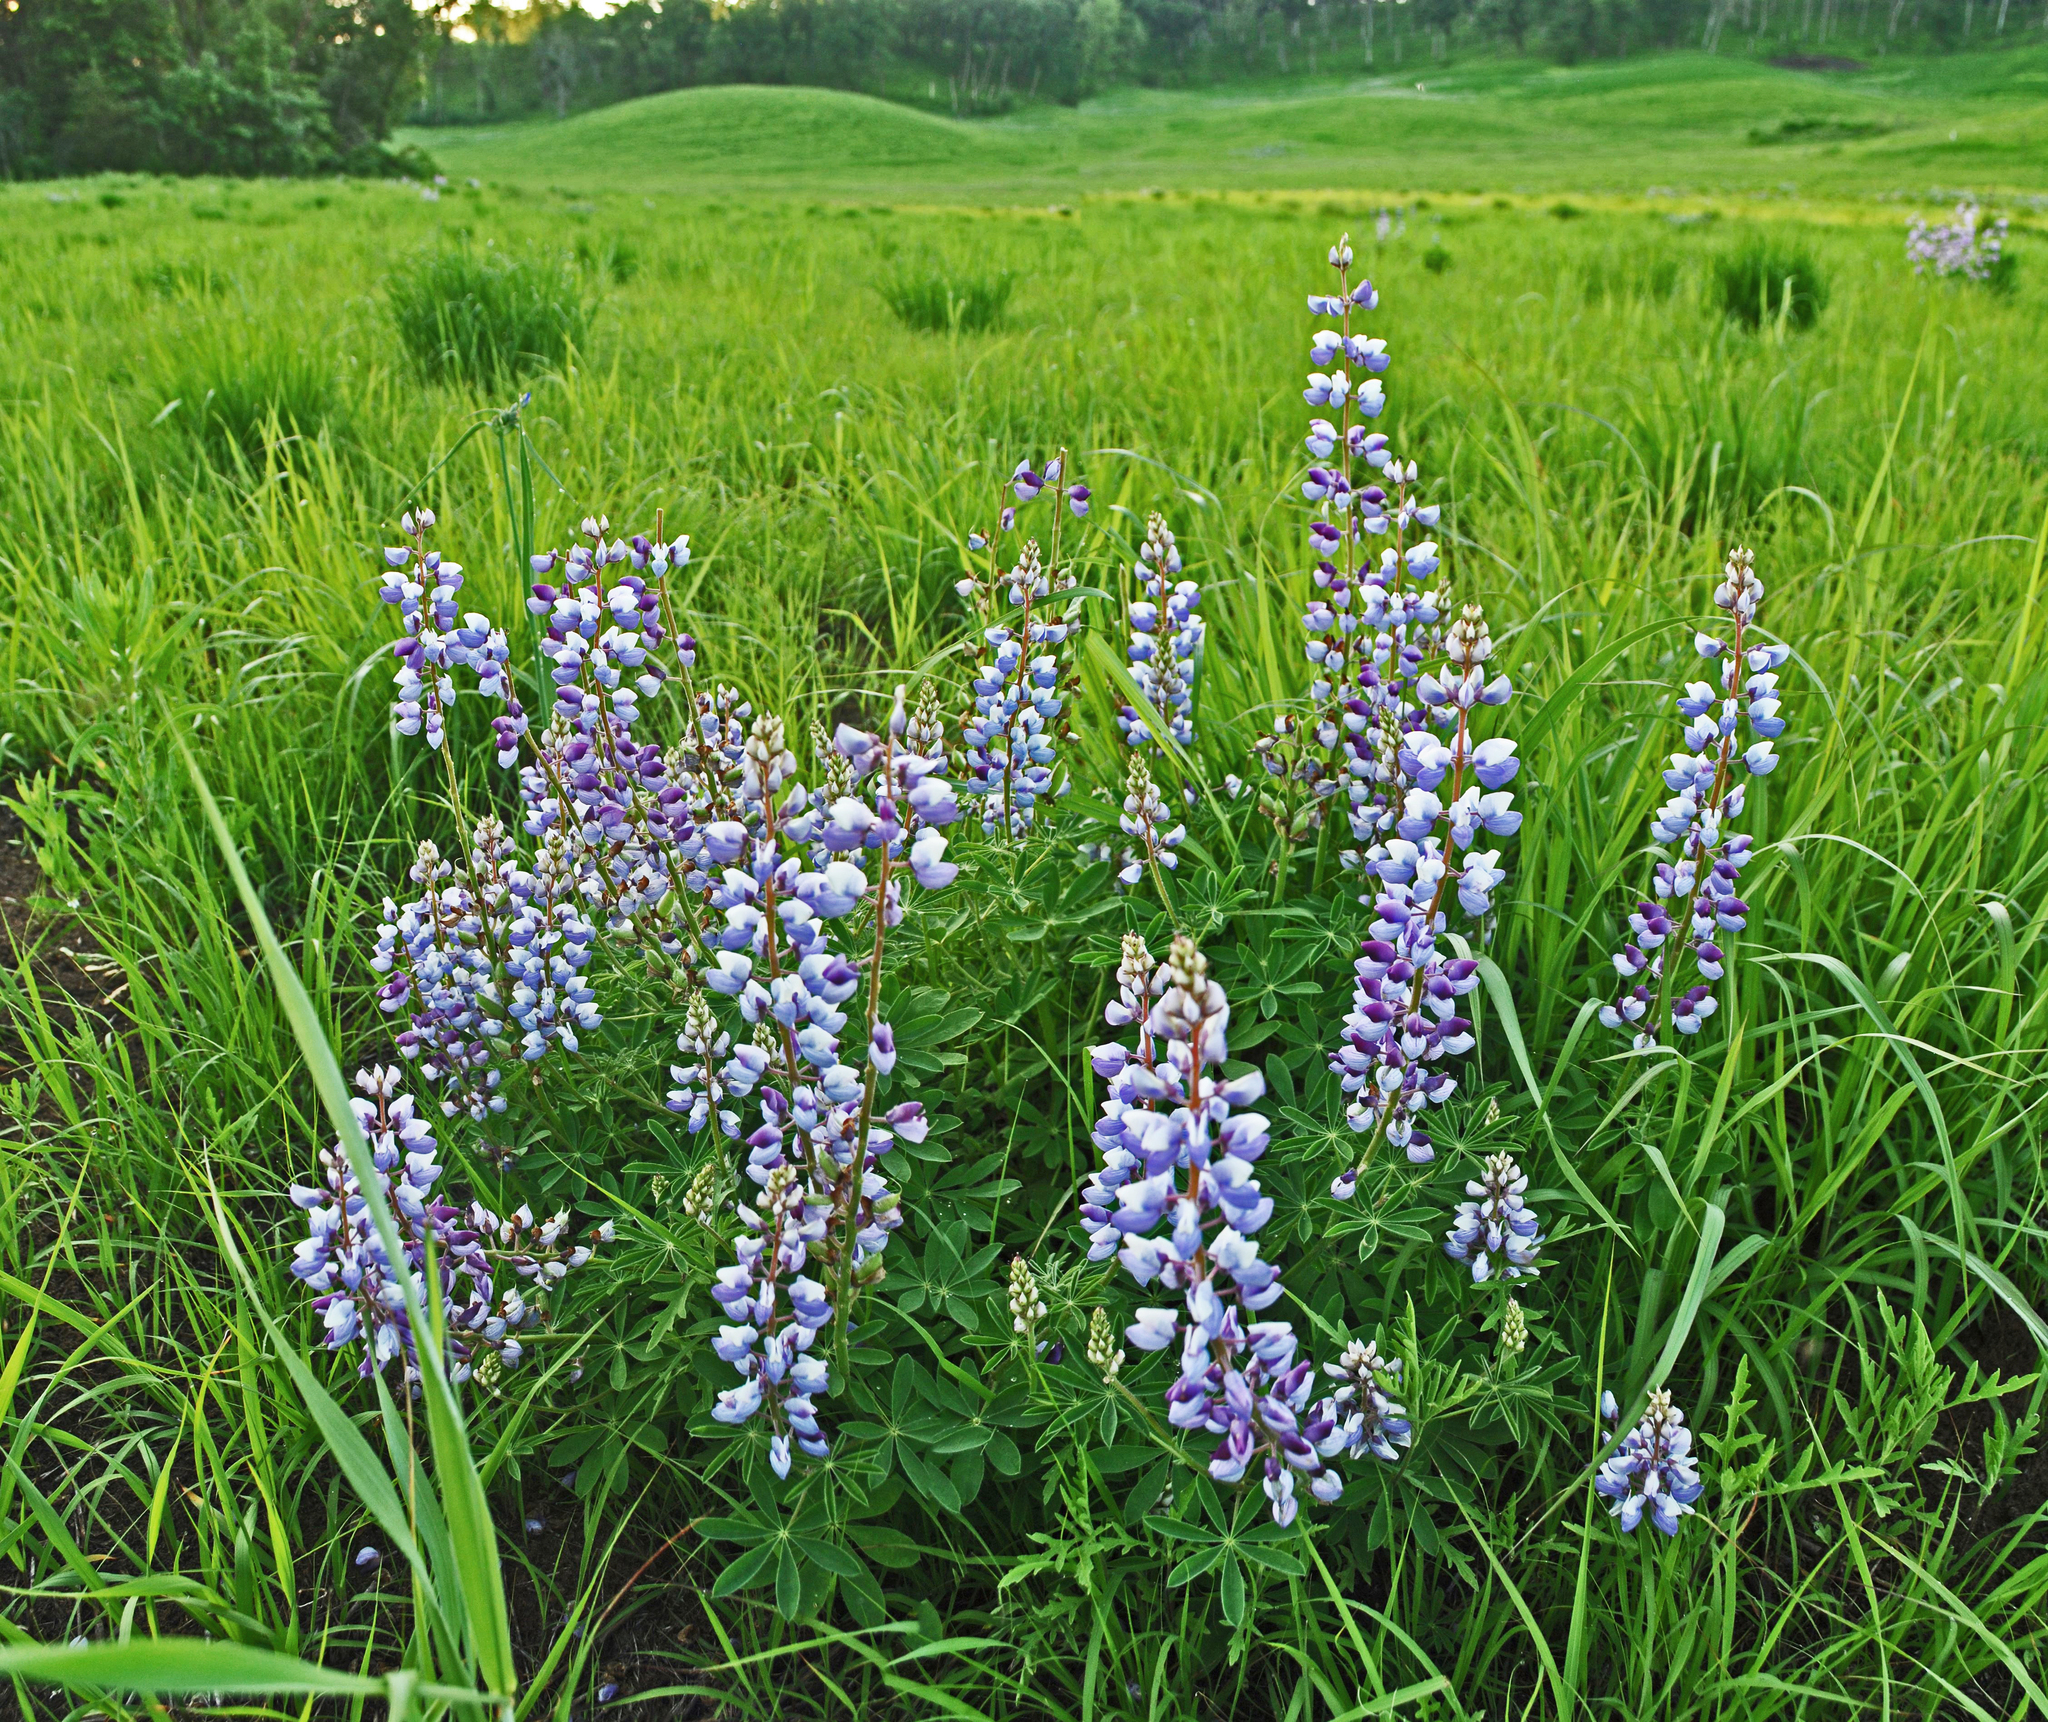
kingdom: Plantae
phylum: Tracheophyta
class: Magnoliopsida
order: Fabales
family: Fabaceae
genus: Lupinus
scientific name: Lupinus perennis
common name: Sundial lupine
